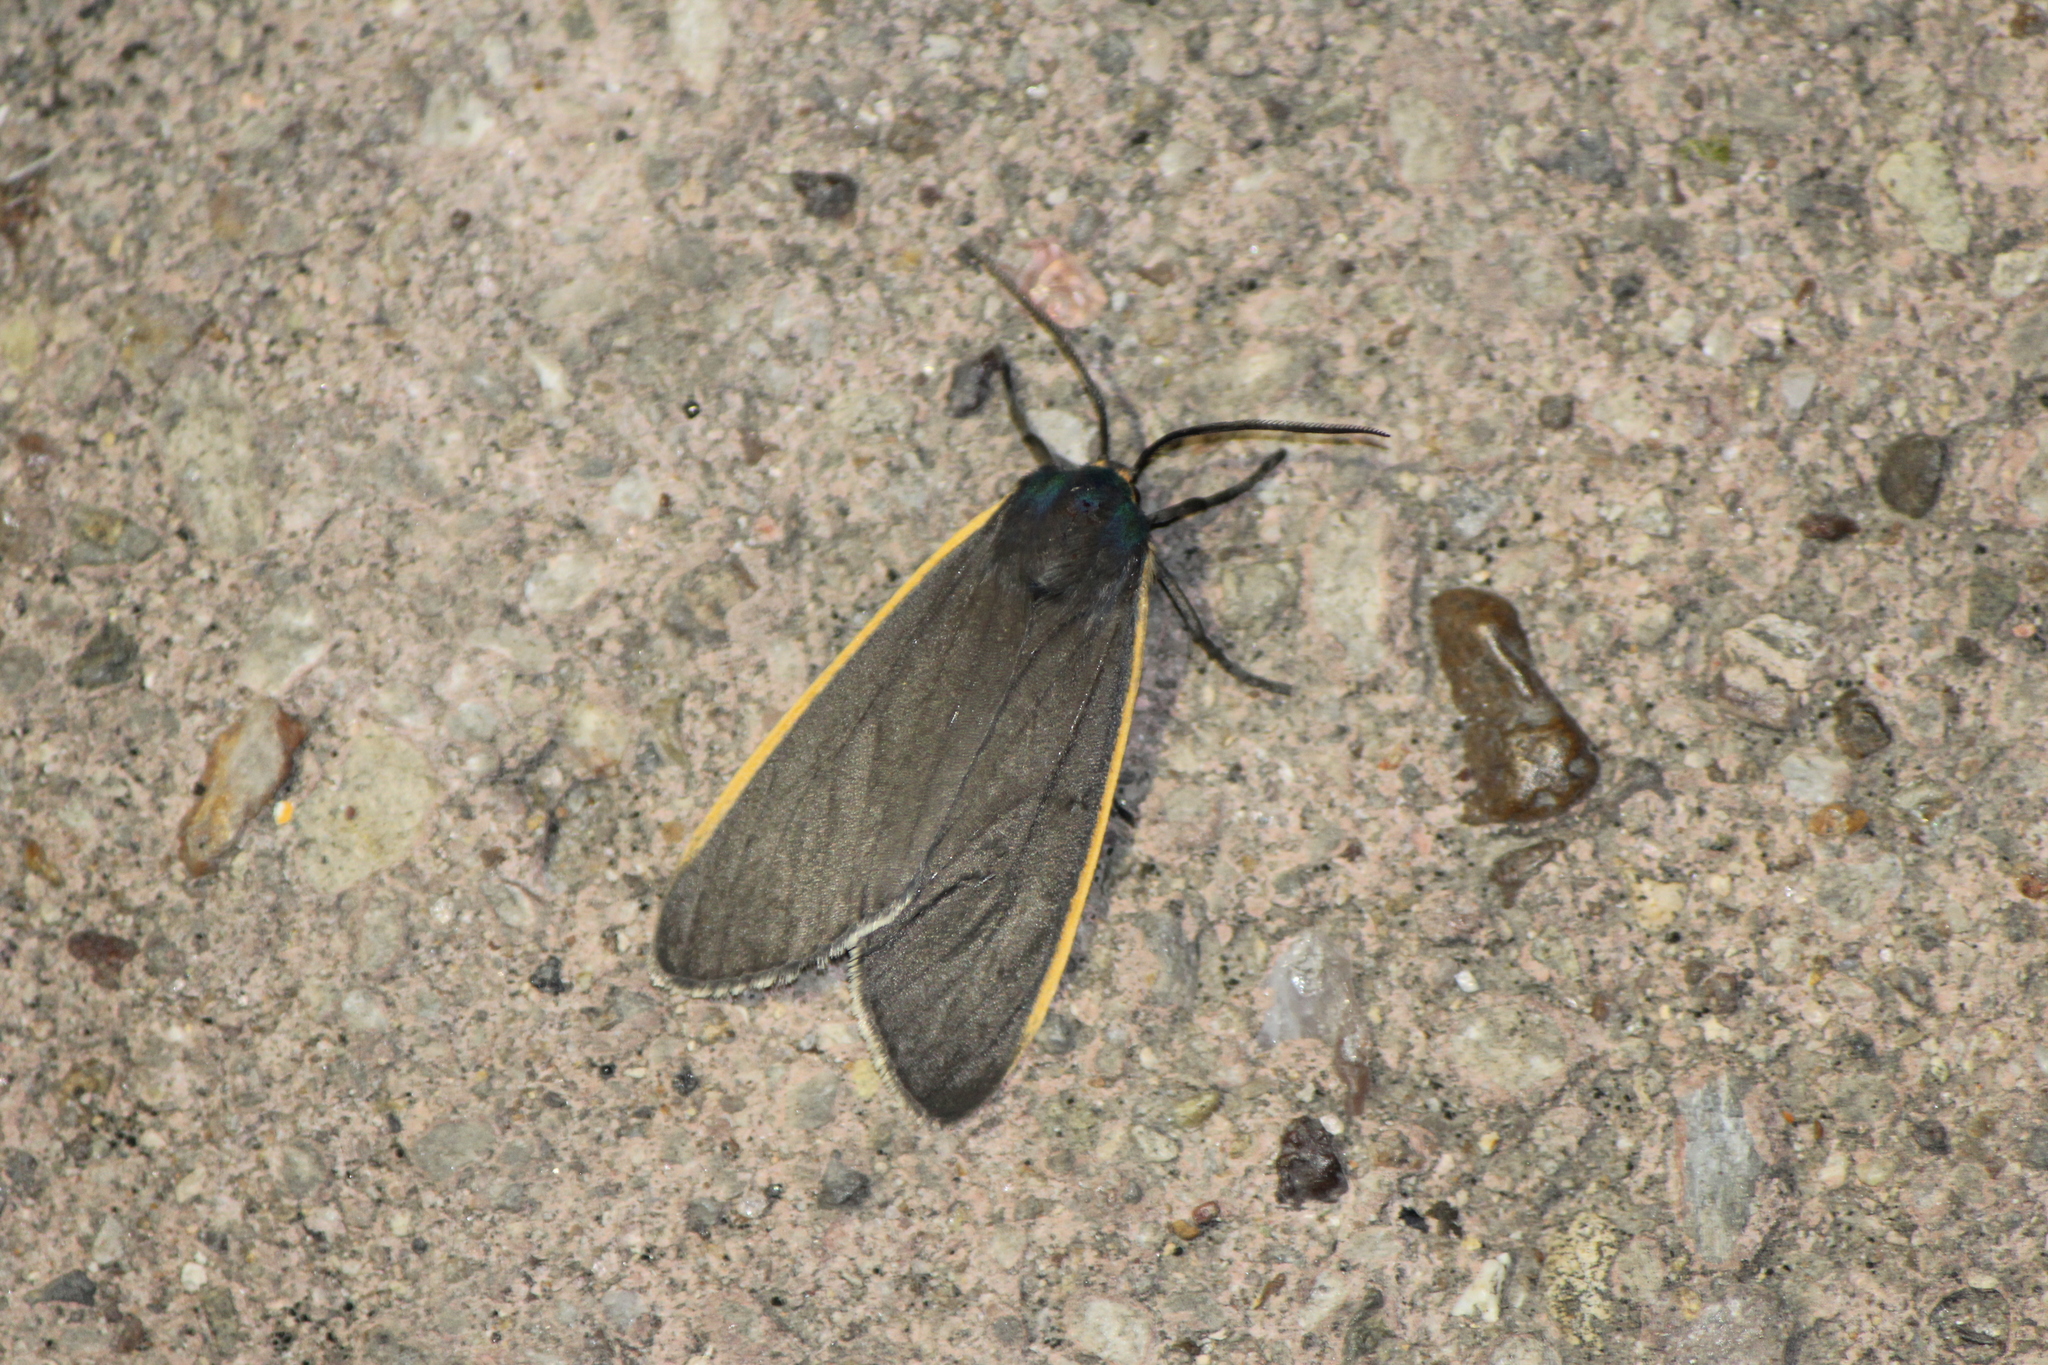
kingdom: Animalia
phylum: Arthropoda
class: Insecta
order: Lepidoptera
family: Erebidae
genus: Euchaetes
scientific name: Euchaetes antica
